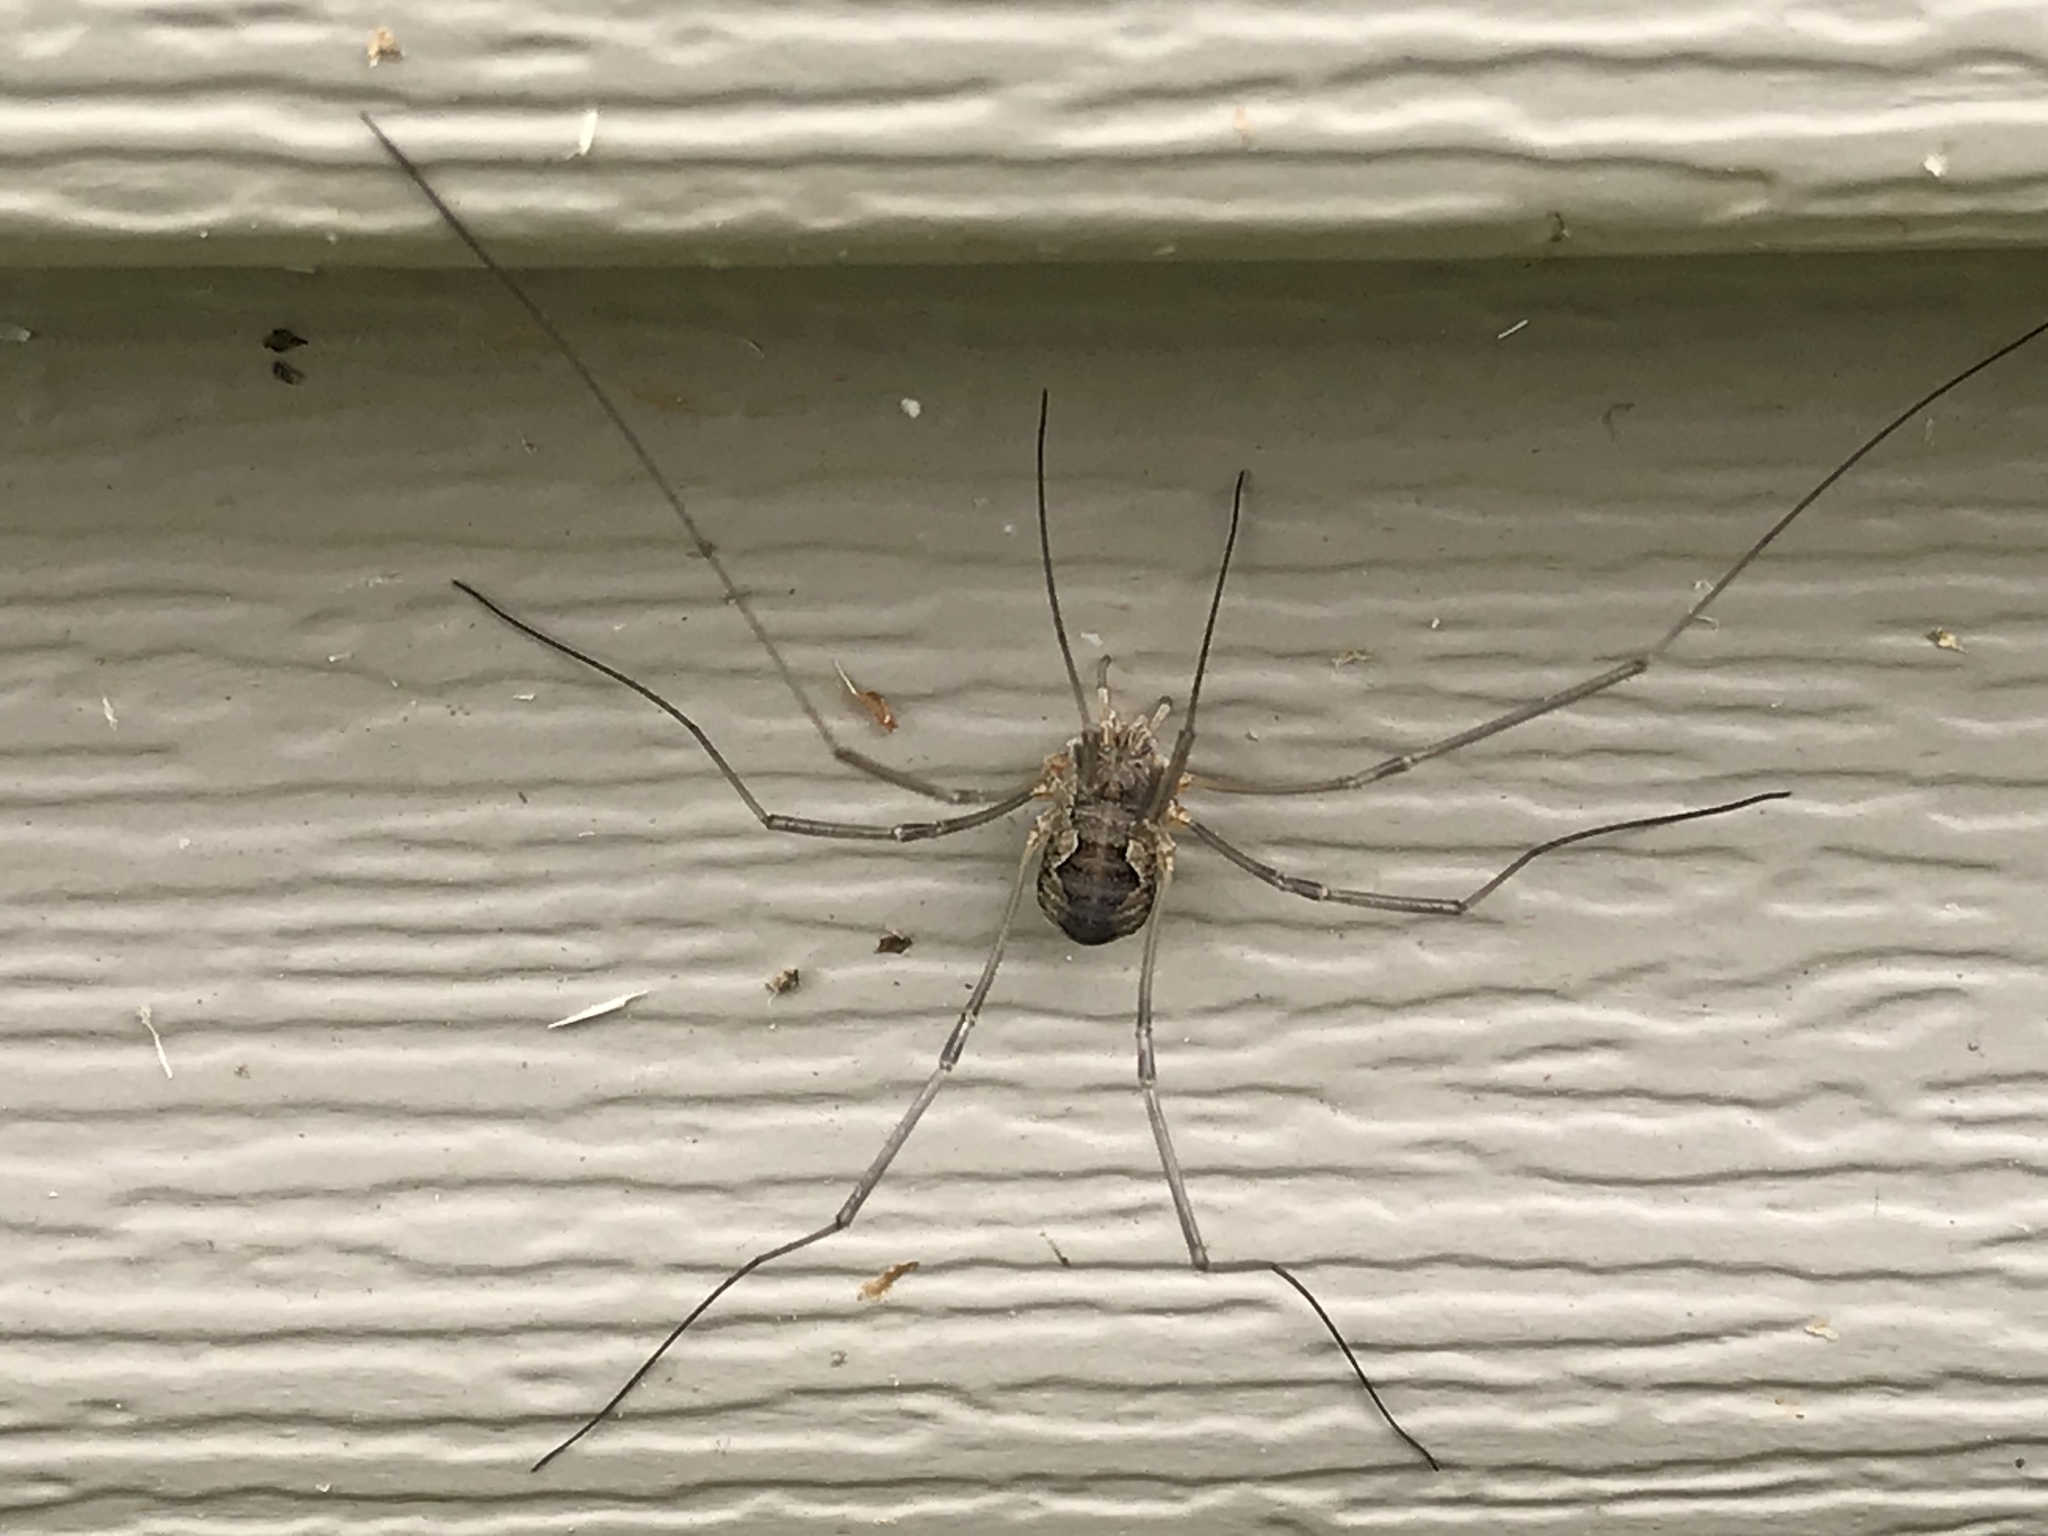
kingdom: Animalia
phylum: Arthropoda
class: Arachnida
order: Opiliones
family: Phalangiidae
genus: Phalangium
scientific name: Phalangium opilio
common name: Daddy longleg
